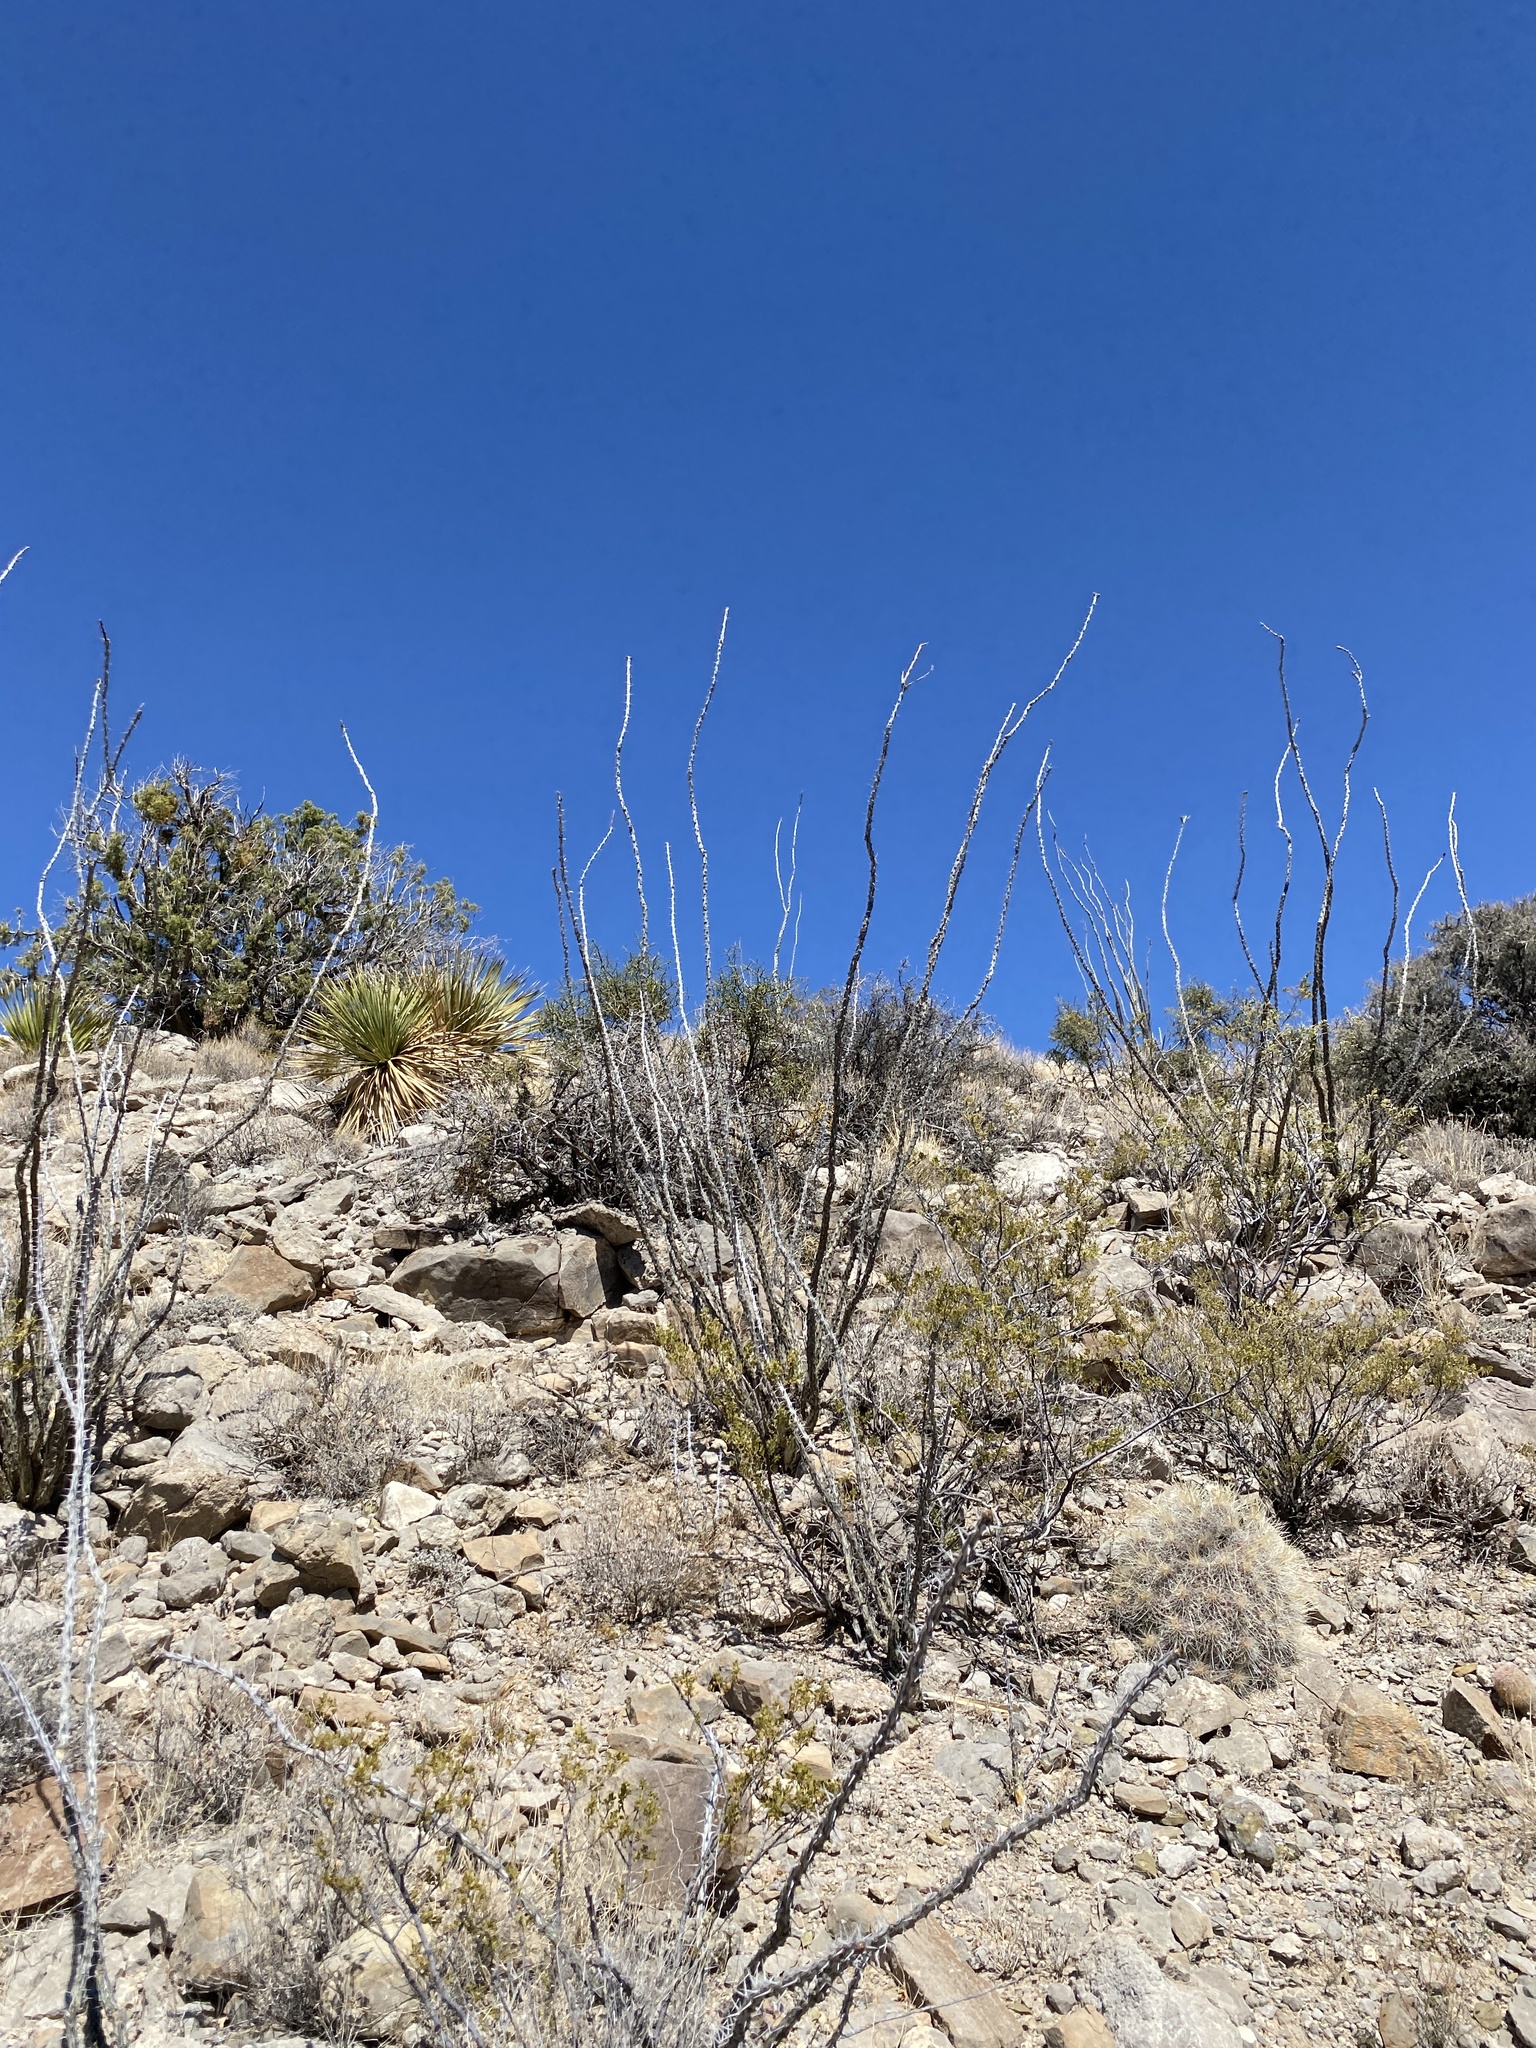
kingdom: Plantae
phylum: Tracheophyta
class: Magnoliopsida
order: Ericales
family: Fouquieriaceae
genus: Fouquieria
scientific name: Fouquieria splendens
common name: Vine-cactus
